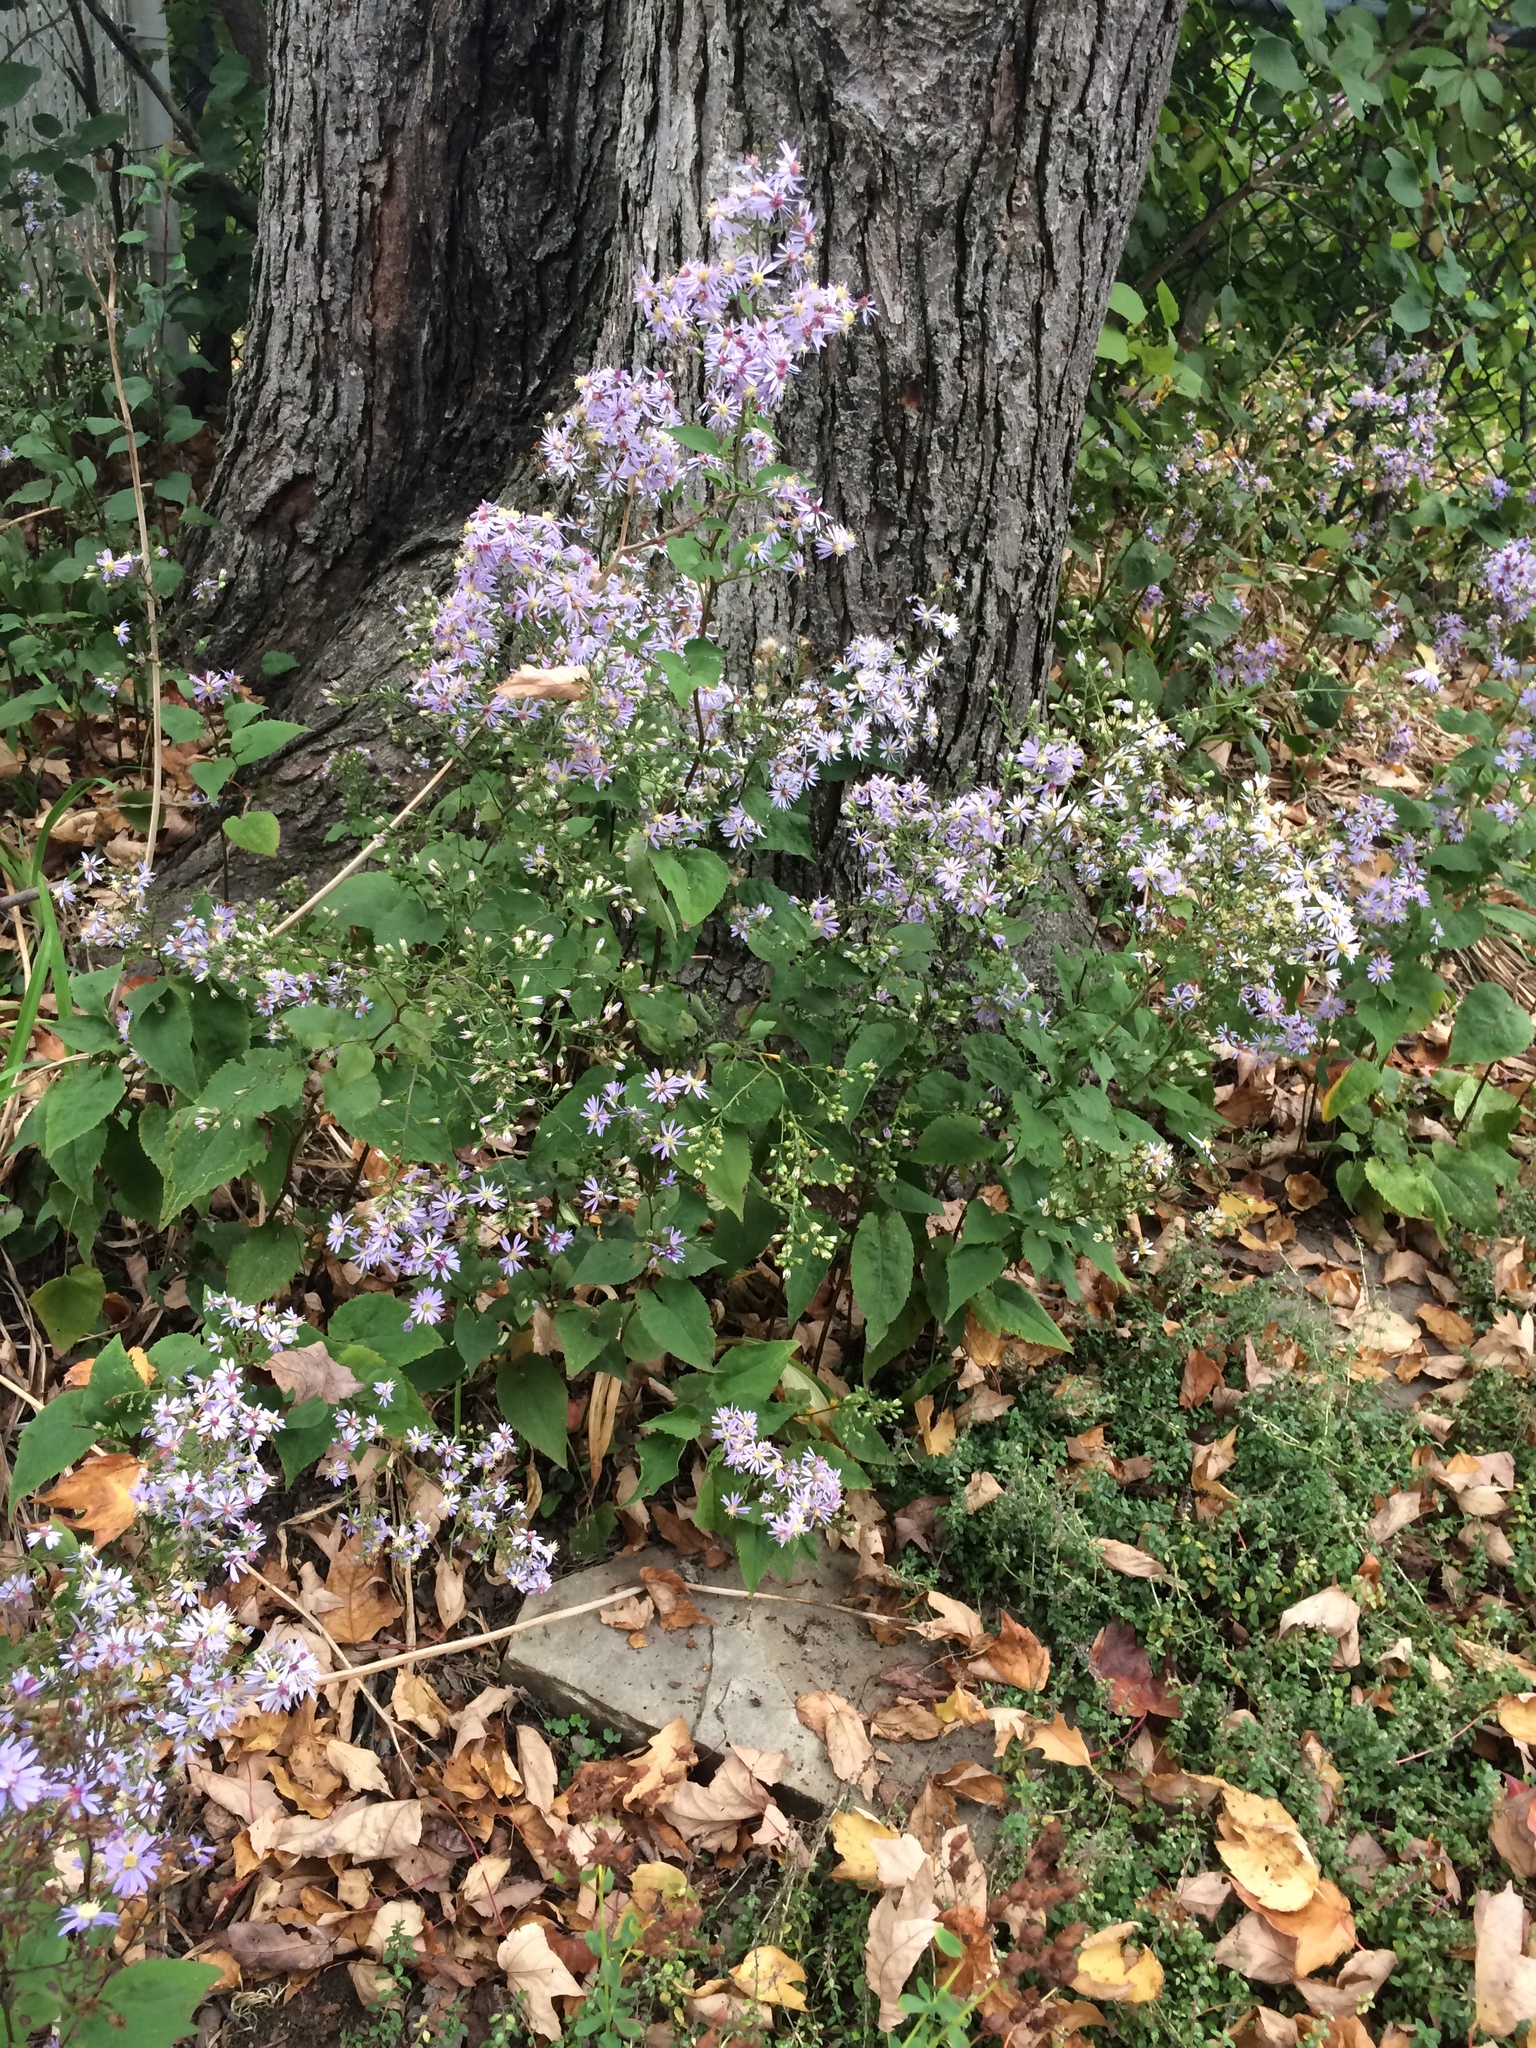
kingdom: Plantae
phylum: Tracheophyta
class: Magnoliopsida
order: Asterales
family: Asteraceae
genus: Symphyotrichum
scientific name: Symphyotrichum cordifolium
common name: Beeweed
